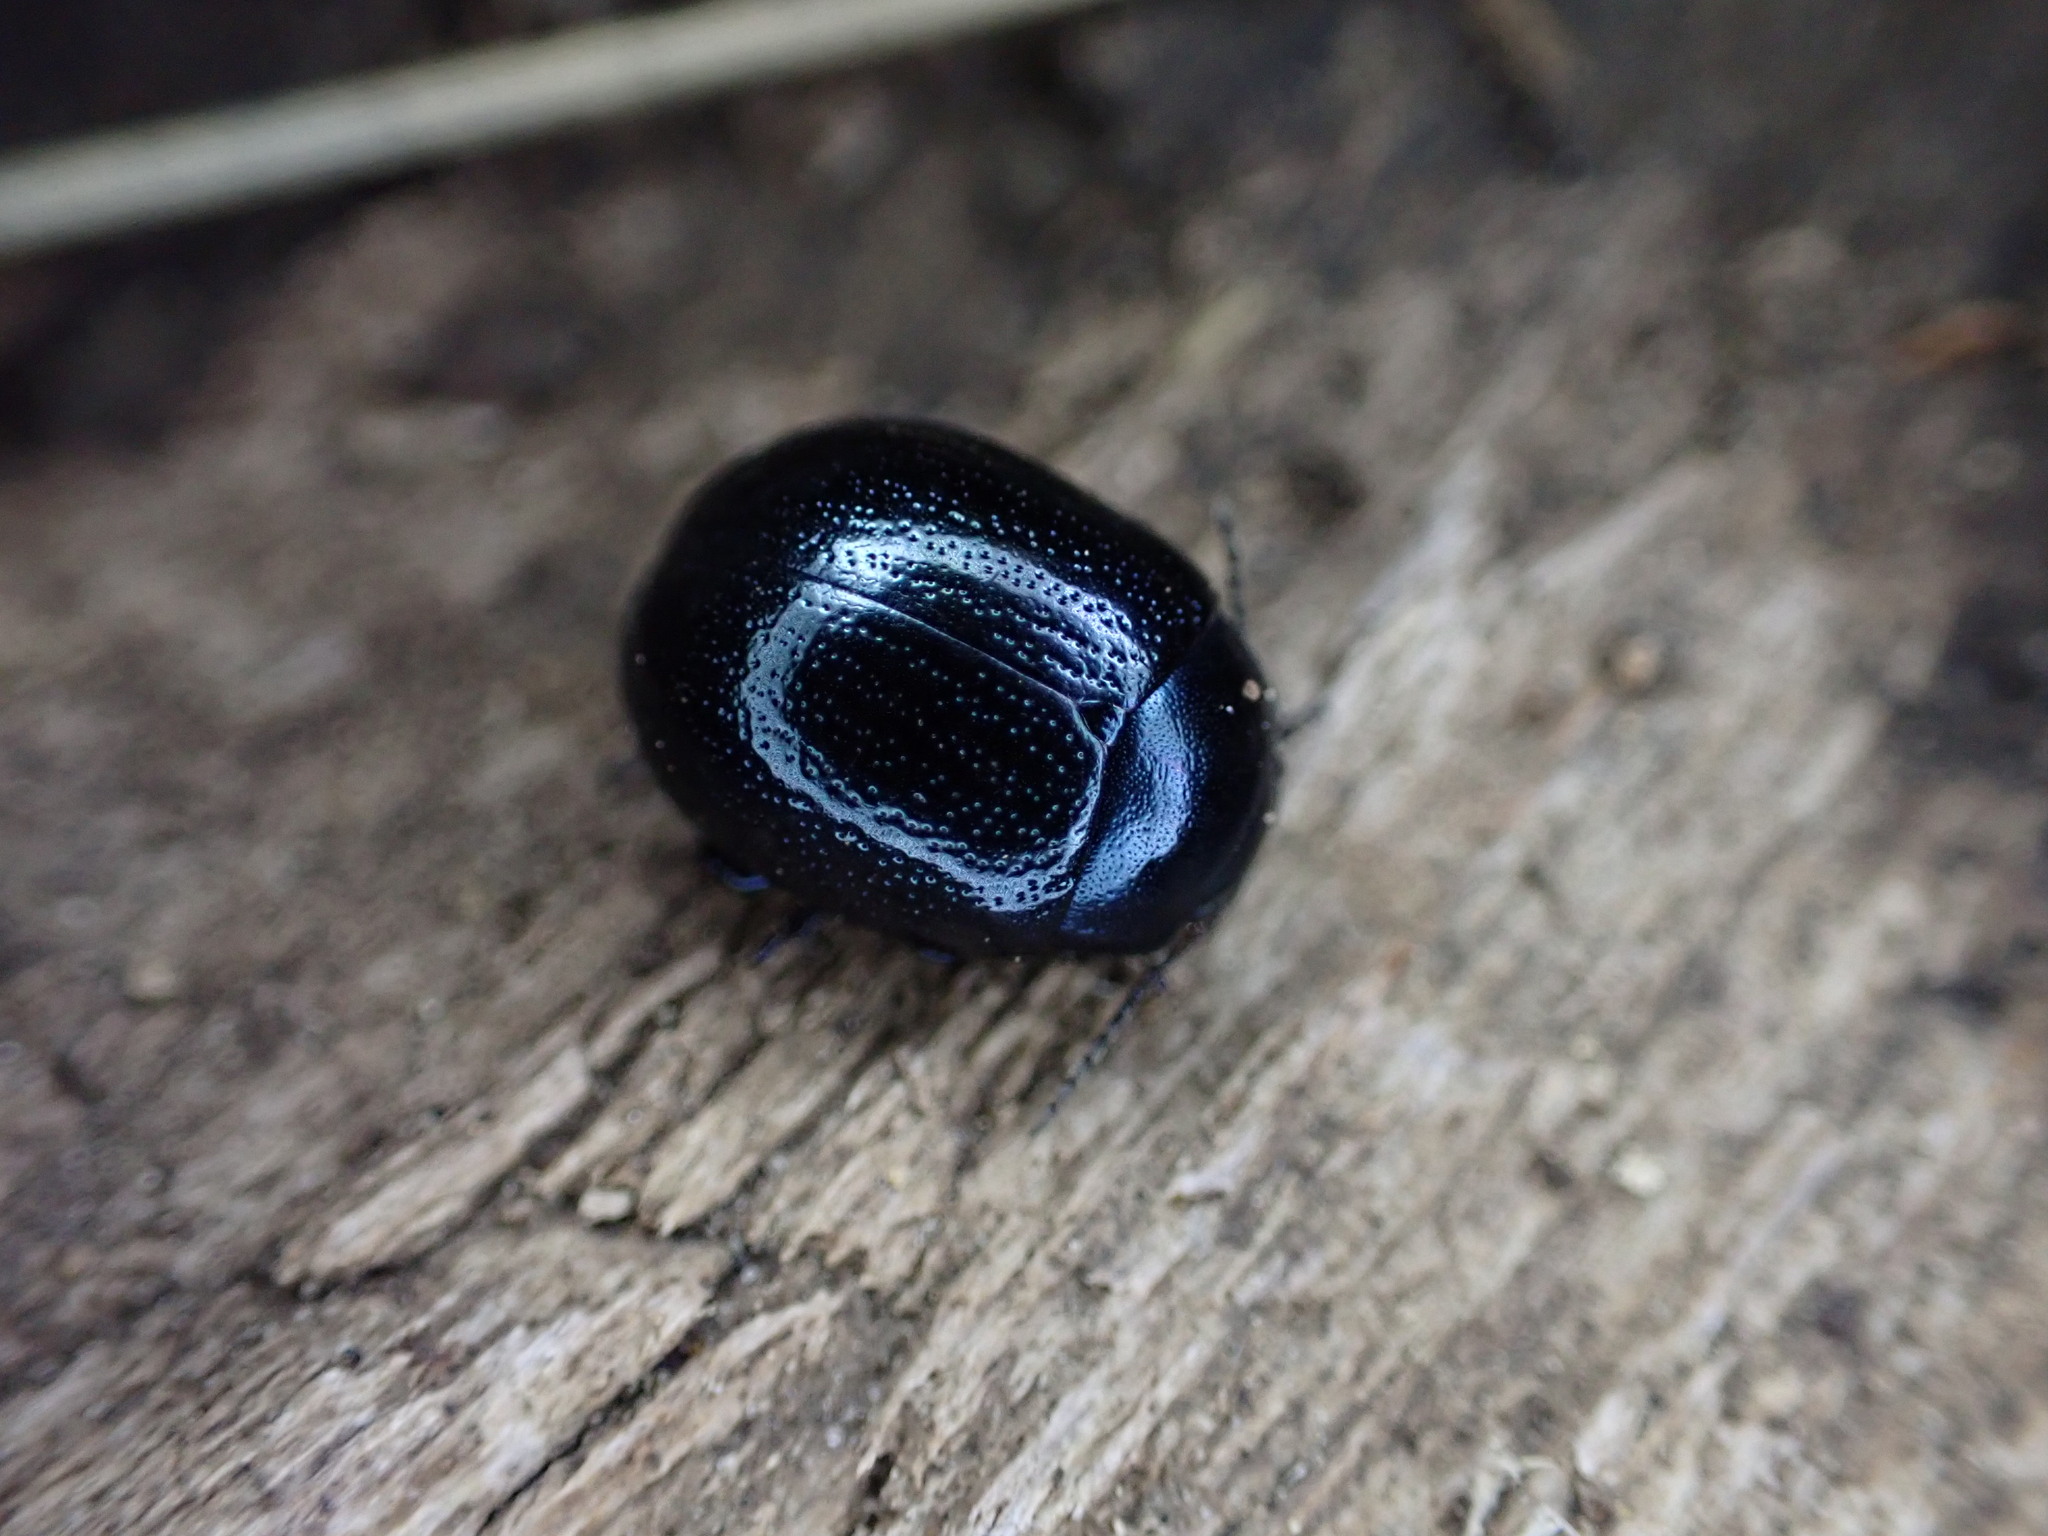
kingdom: Animalia
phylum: Arthropoda
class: Insecta
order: Coleoptera
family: Chrysomelidae
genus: Chrysolina
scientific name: Chrysolina haemoptera
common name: Plantain leaf beetle
